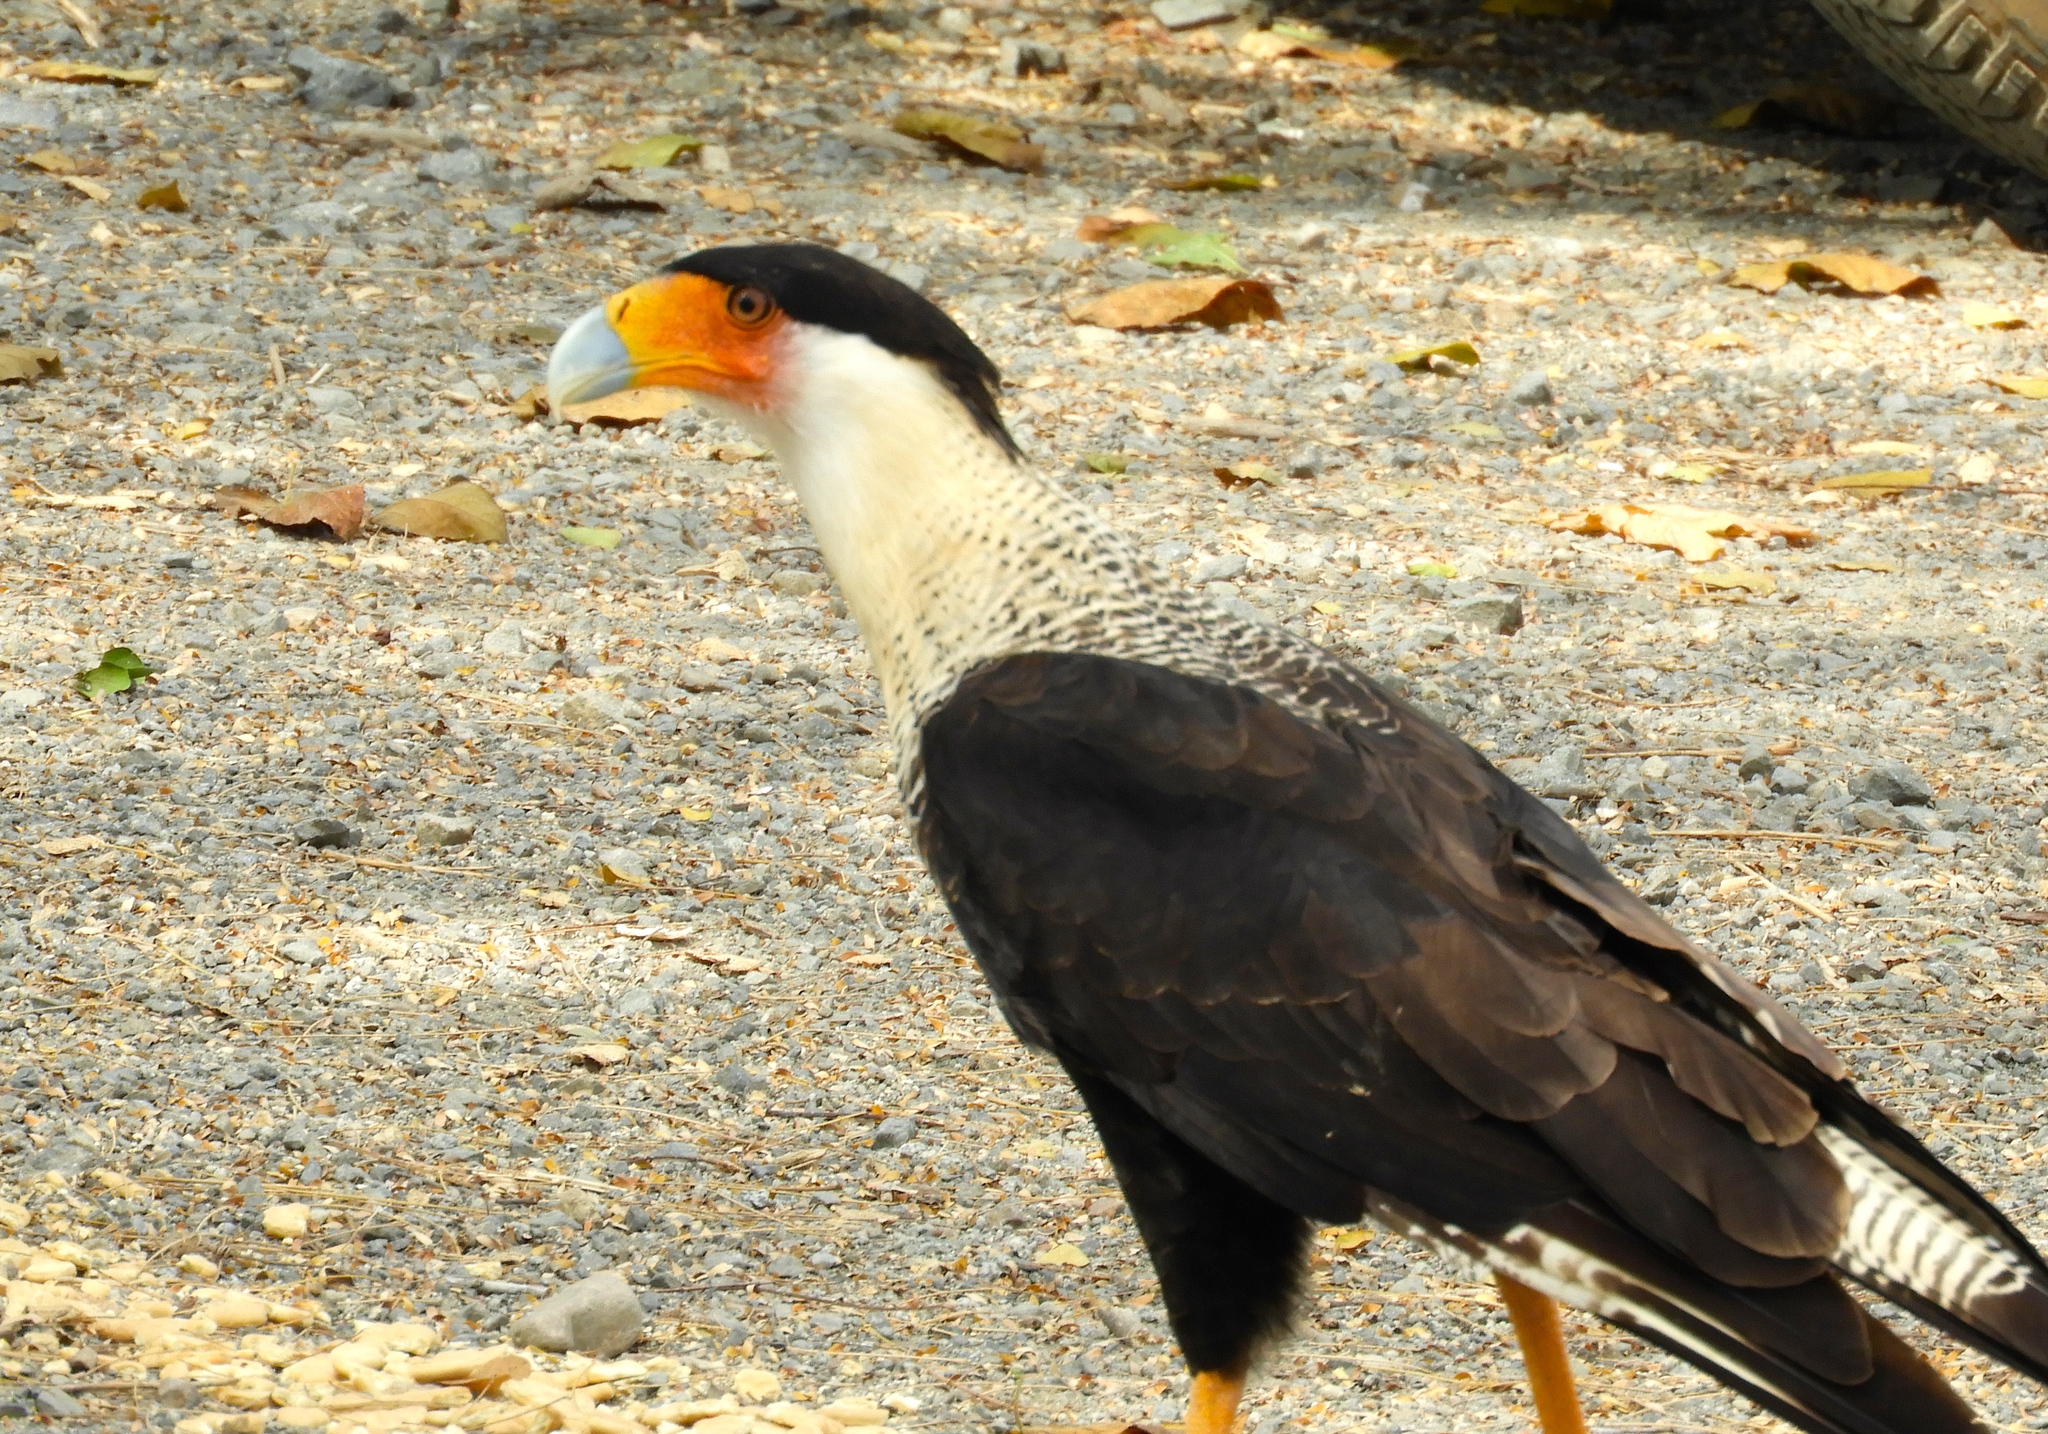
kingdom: Animalia
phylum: Chordata
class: Aves
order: Falconiformes
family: Falconidae
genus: Caracara
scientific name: Caracara plancus
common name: Southern caracara
